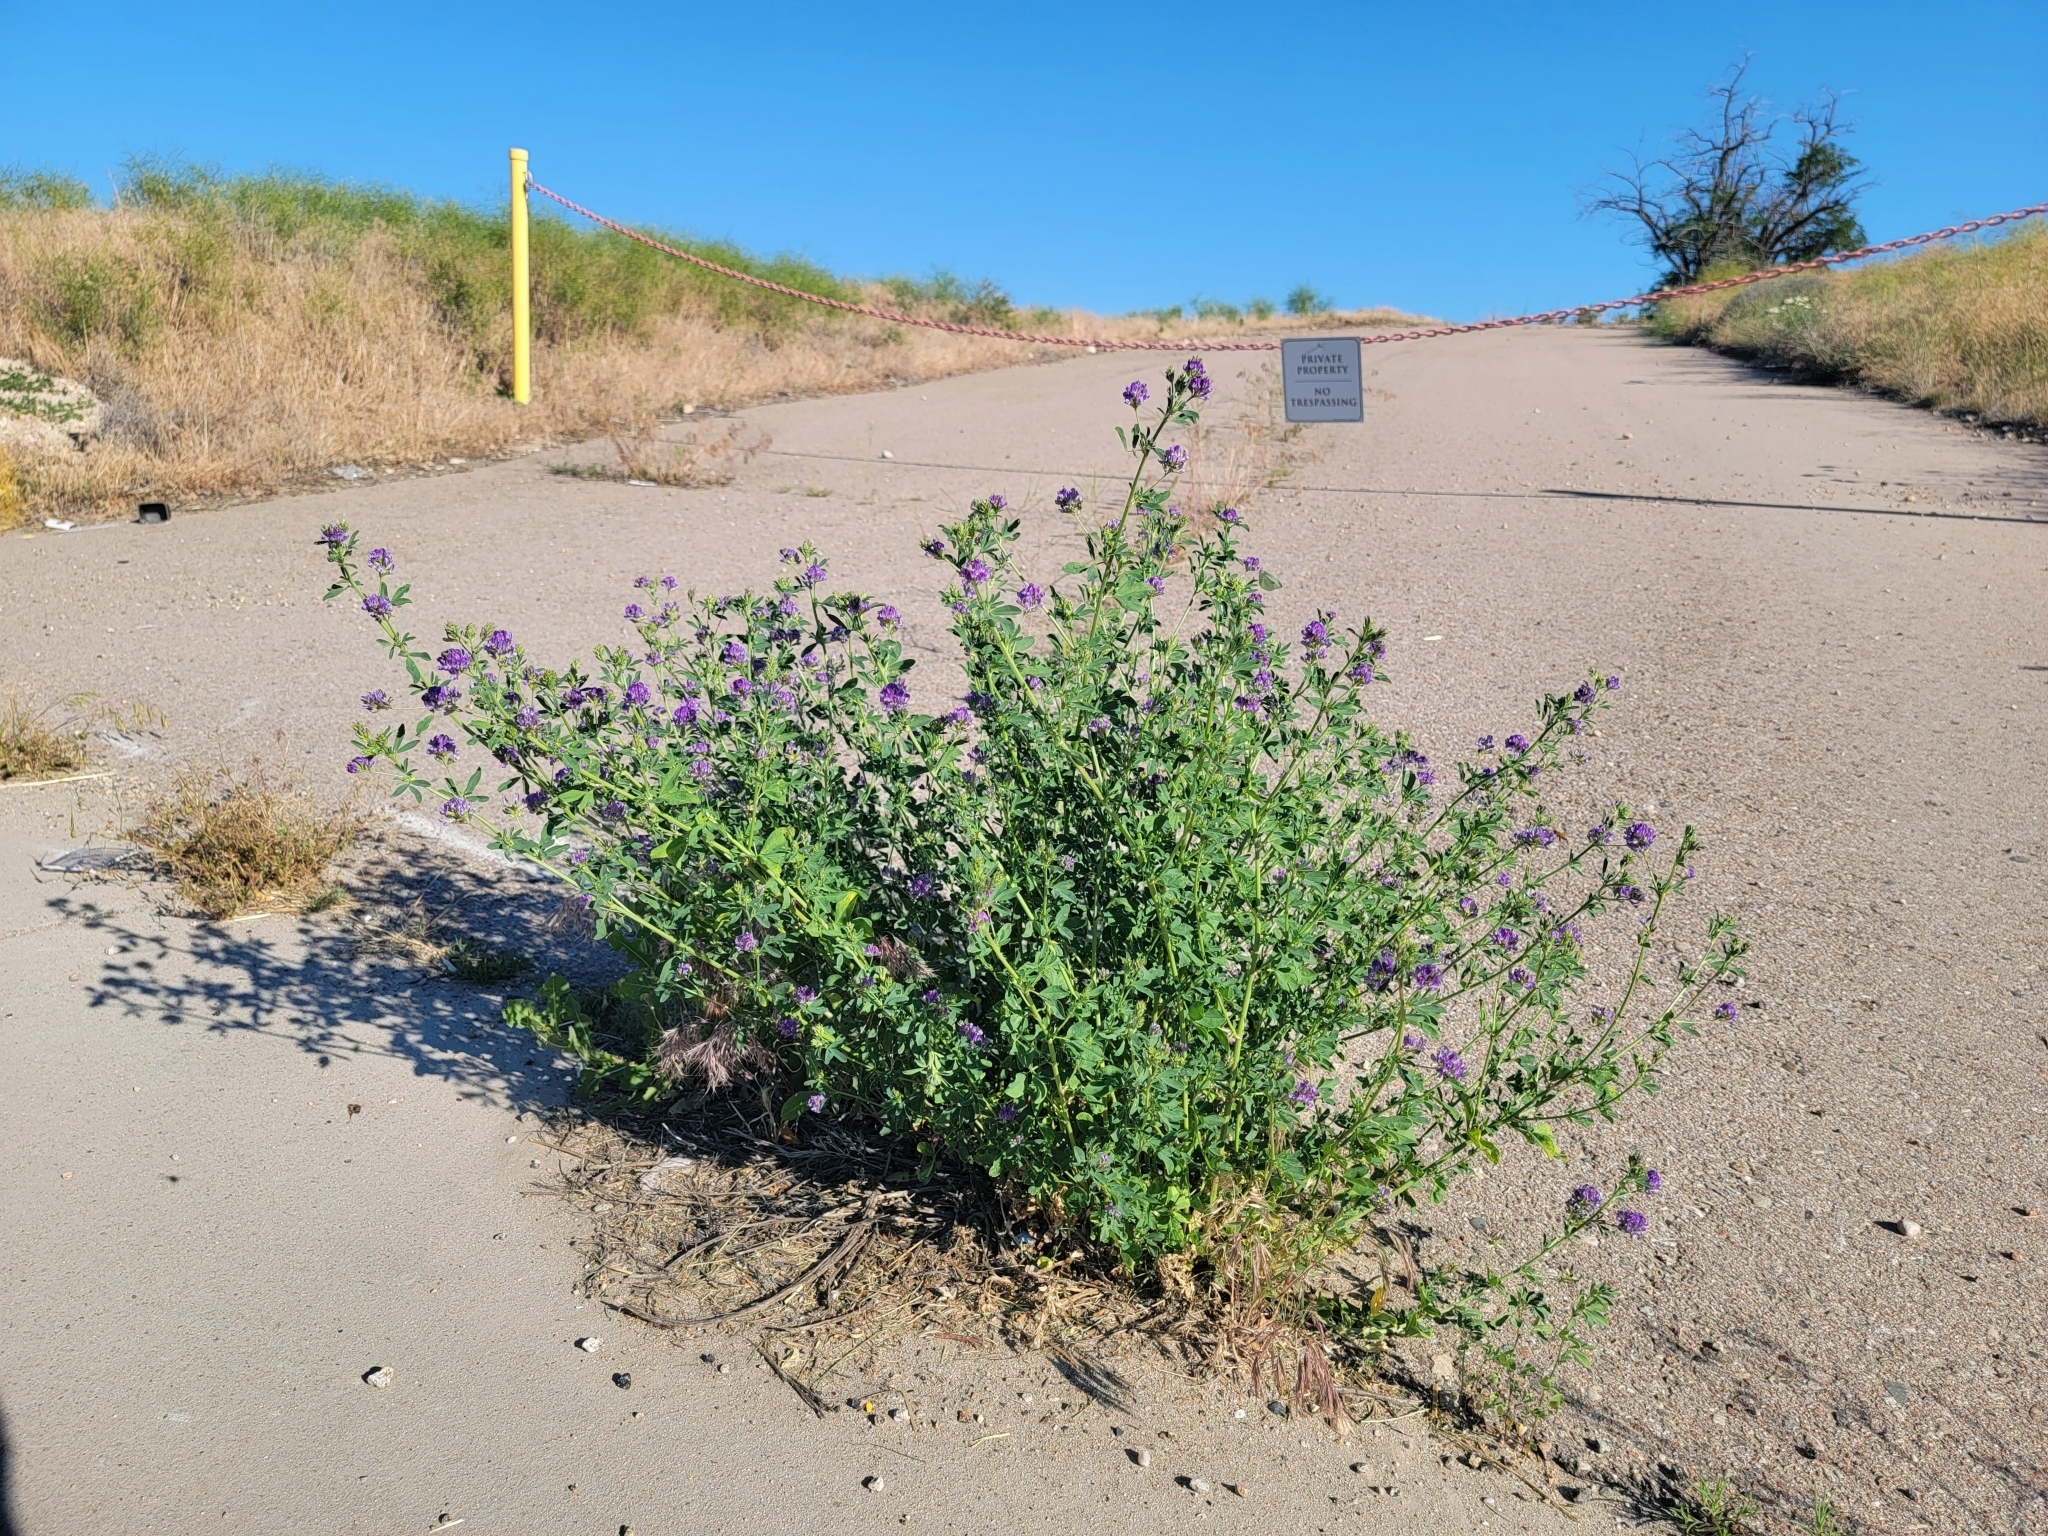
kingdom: Plantae
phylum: Tracheophyta
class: Magnoliopsida
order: Fabales
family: Fabaceae
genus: Medicago
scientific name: Medicago sativa
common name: Alfalfa
